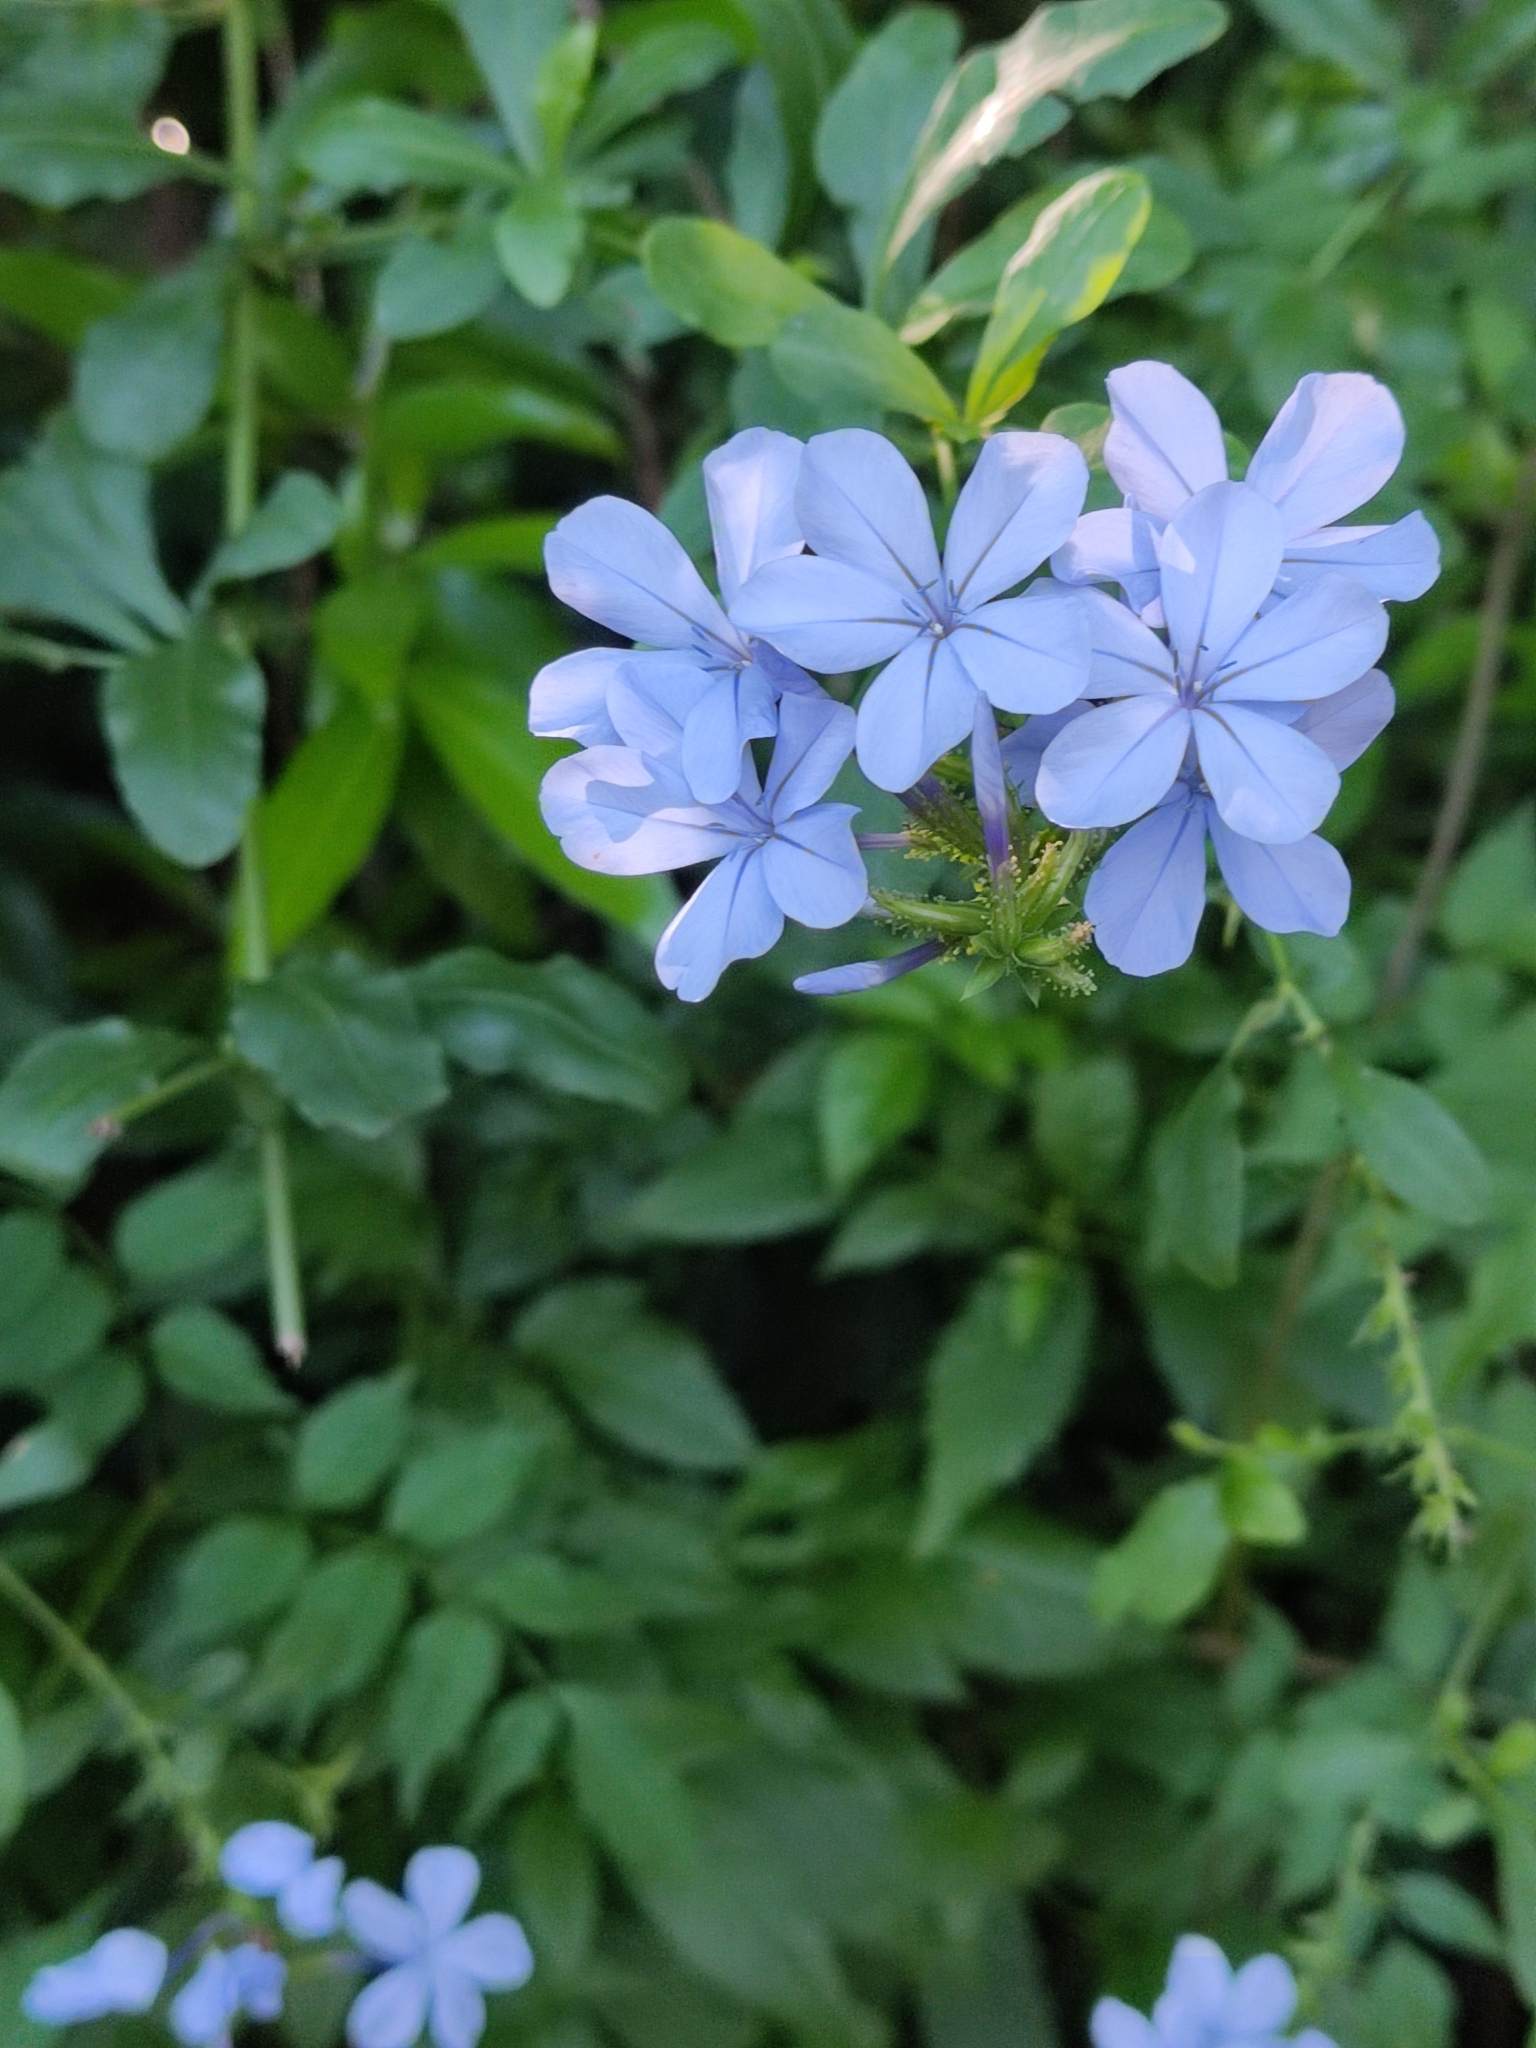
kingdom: Plantae
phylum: Tracheophyta
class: Magnoliopsida
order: Caryophyllales
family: Plumbaginaceae
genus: Plumbago
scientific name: Plumbago auriculata
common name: Cape leadwort
